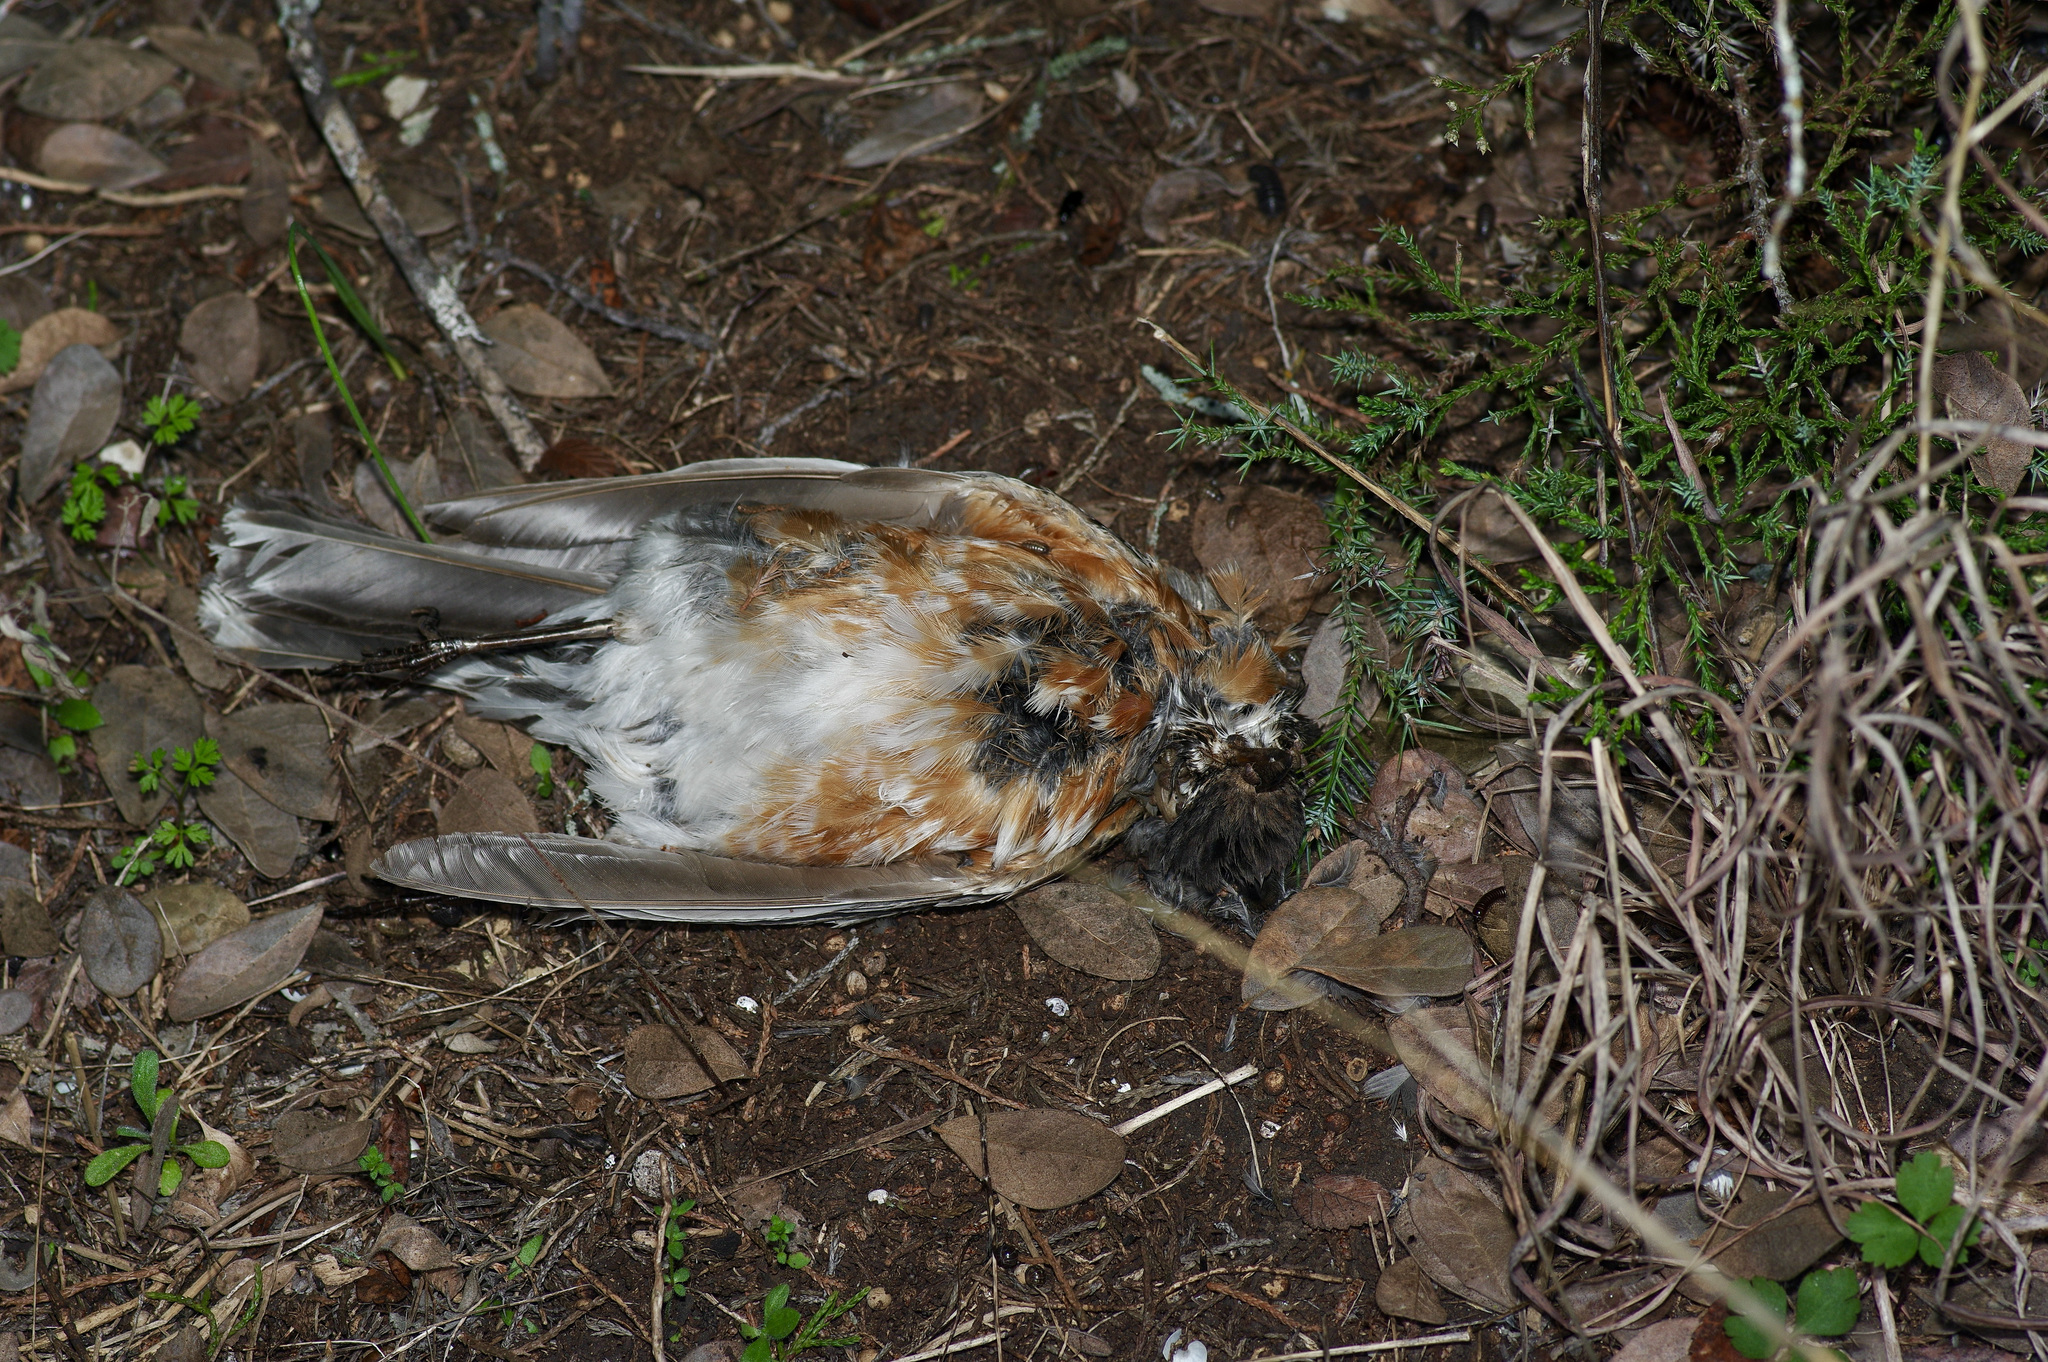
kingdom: Animalia
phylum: Chordata
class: Aves
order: Passeriformes
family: Turdidae
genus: Turdus
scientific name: Turdus migratorius
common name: American robin
